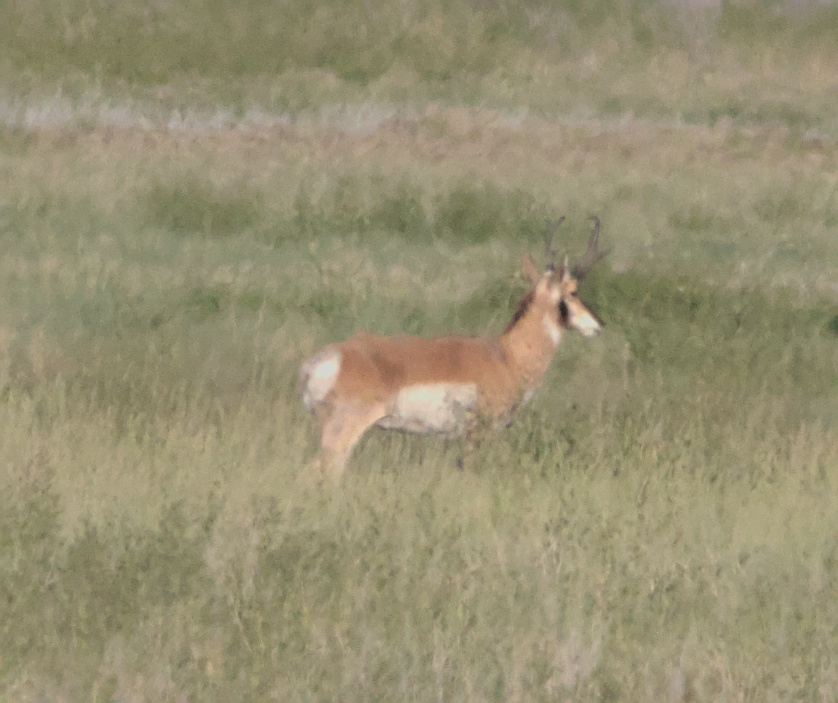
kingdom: Animalia
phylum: Chordata
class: Mammalia
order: Artiodactyla
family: Antilocapridae
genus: Antilocapra
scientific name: Antilocapra americana
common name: Pronghorn
